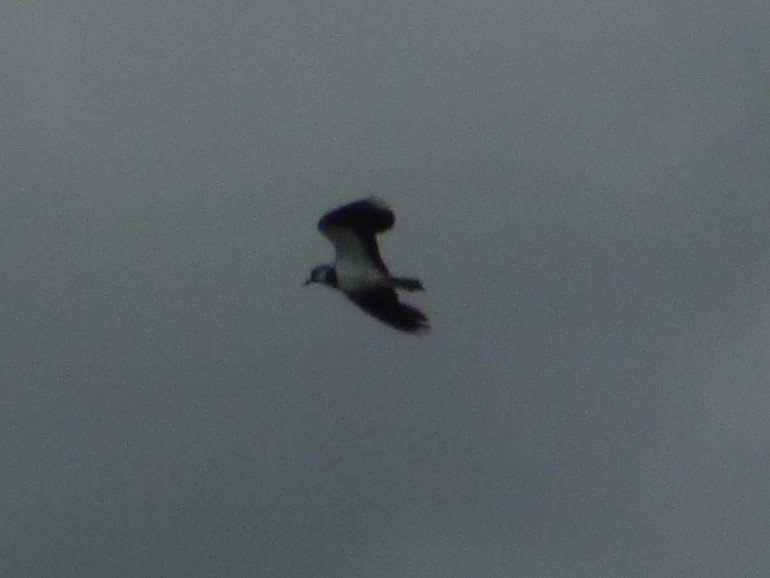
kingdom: Animalia
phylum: Chordata
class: Aves
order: Charadriiformes
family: Charadriidae
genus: Vanellus
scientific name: Vanellus vanellus
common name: Northern lapwing
